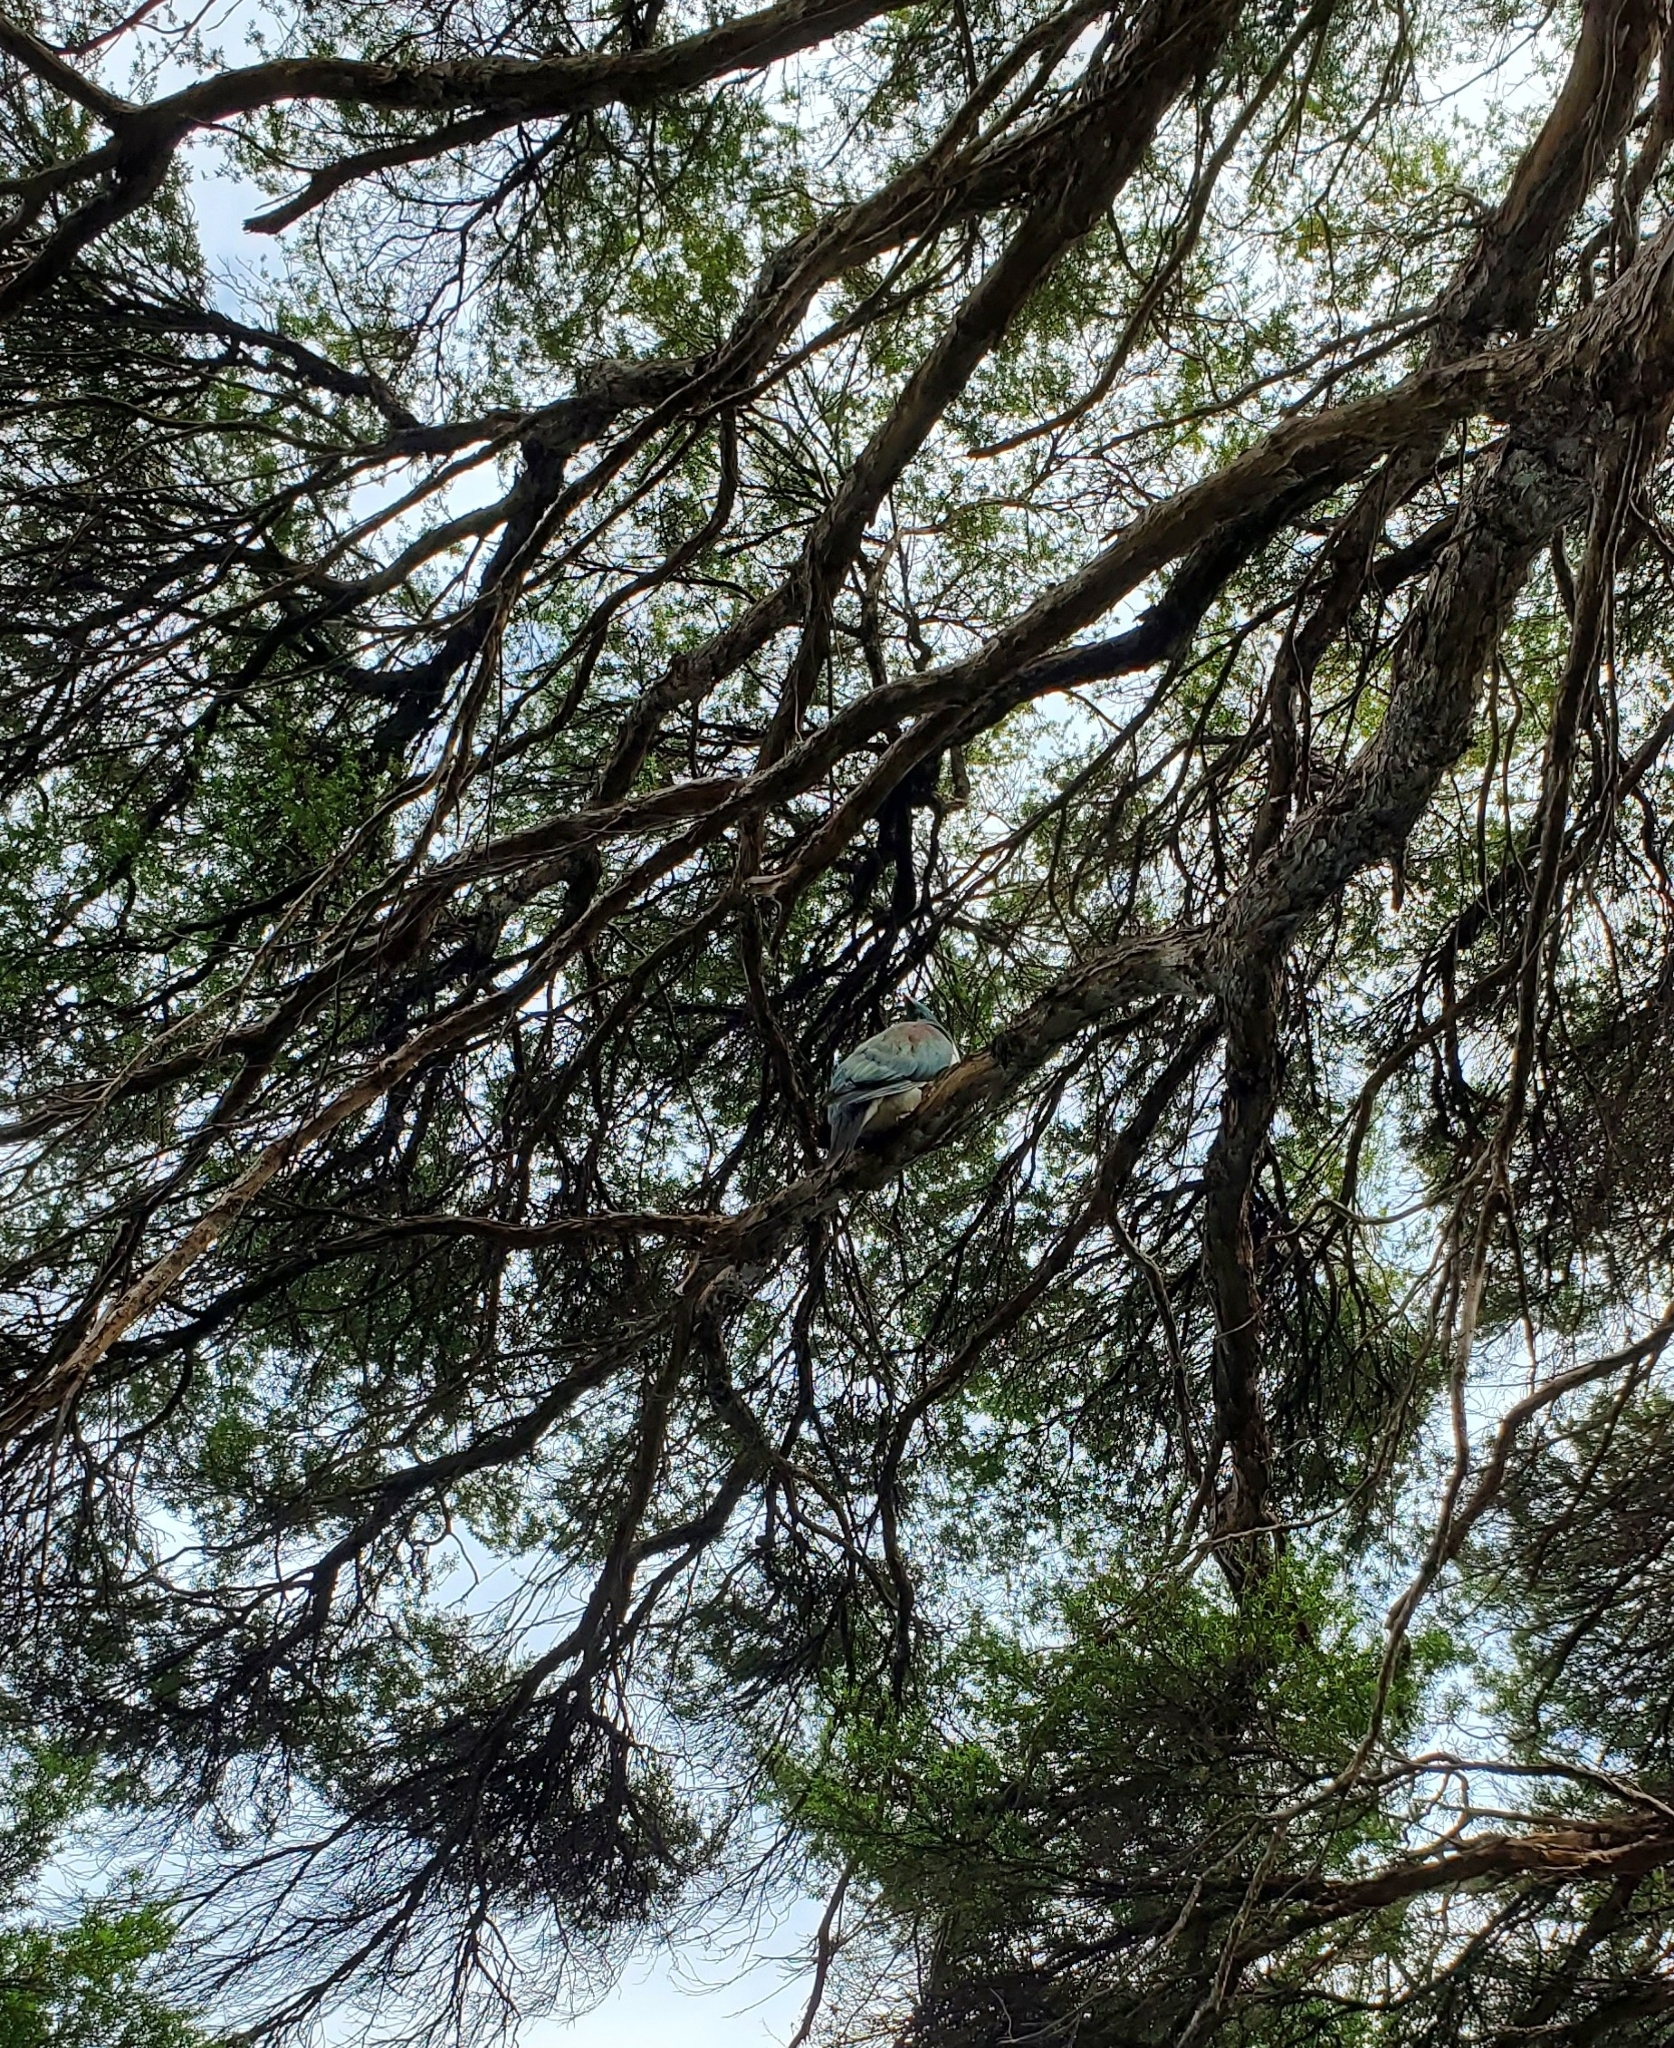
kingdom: Animalia
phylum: Chordata
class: Aves
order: Columbiformes
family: Columbidae
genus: Hemiphaga
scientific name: Hemiphaga novaeseelandiae
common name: New zealand pigeon
